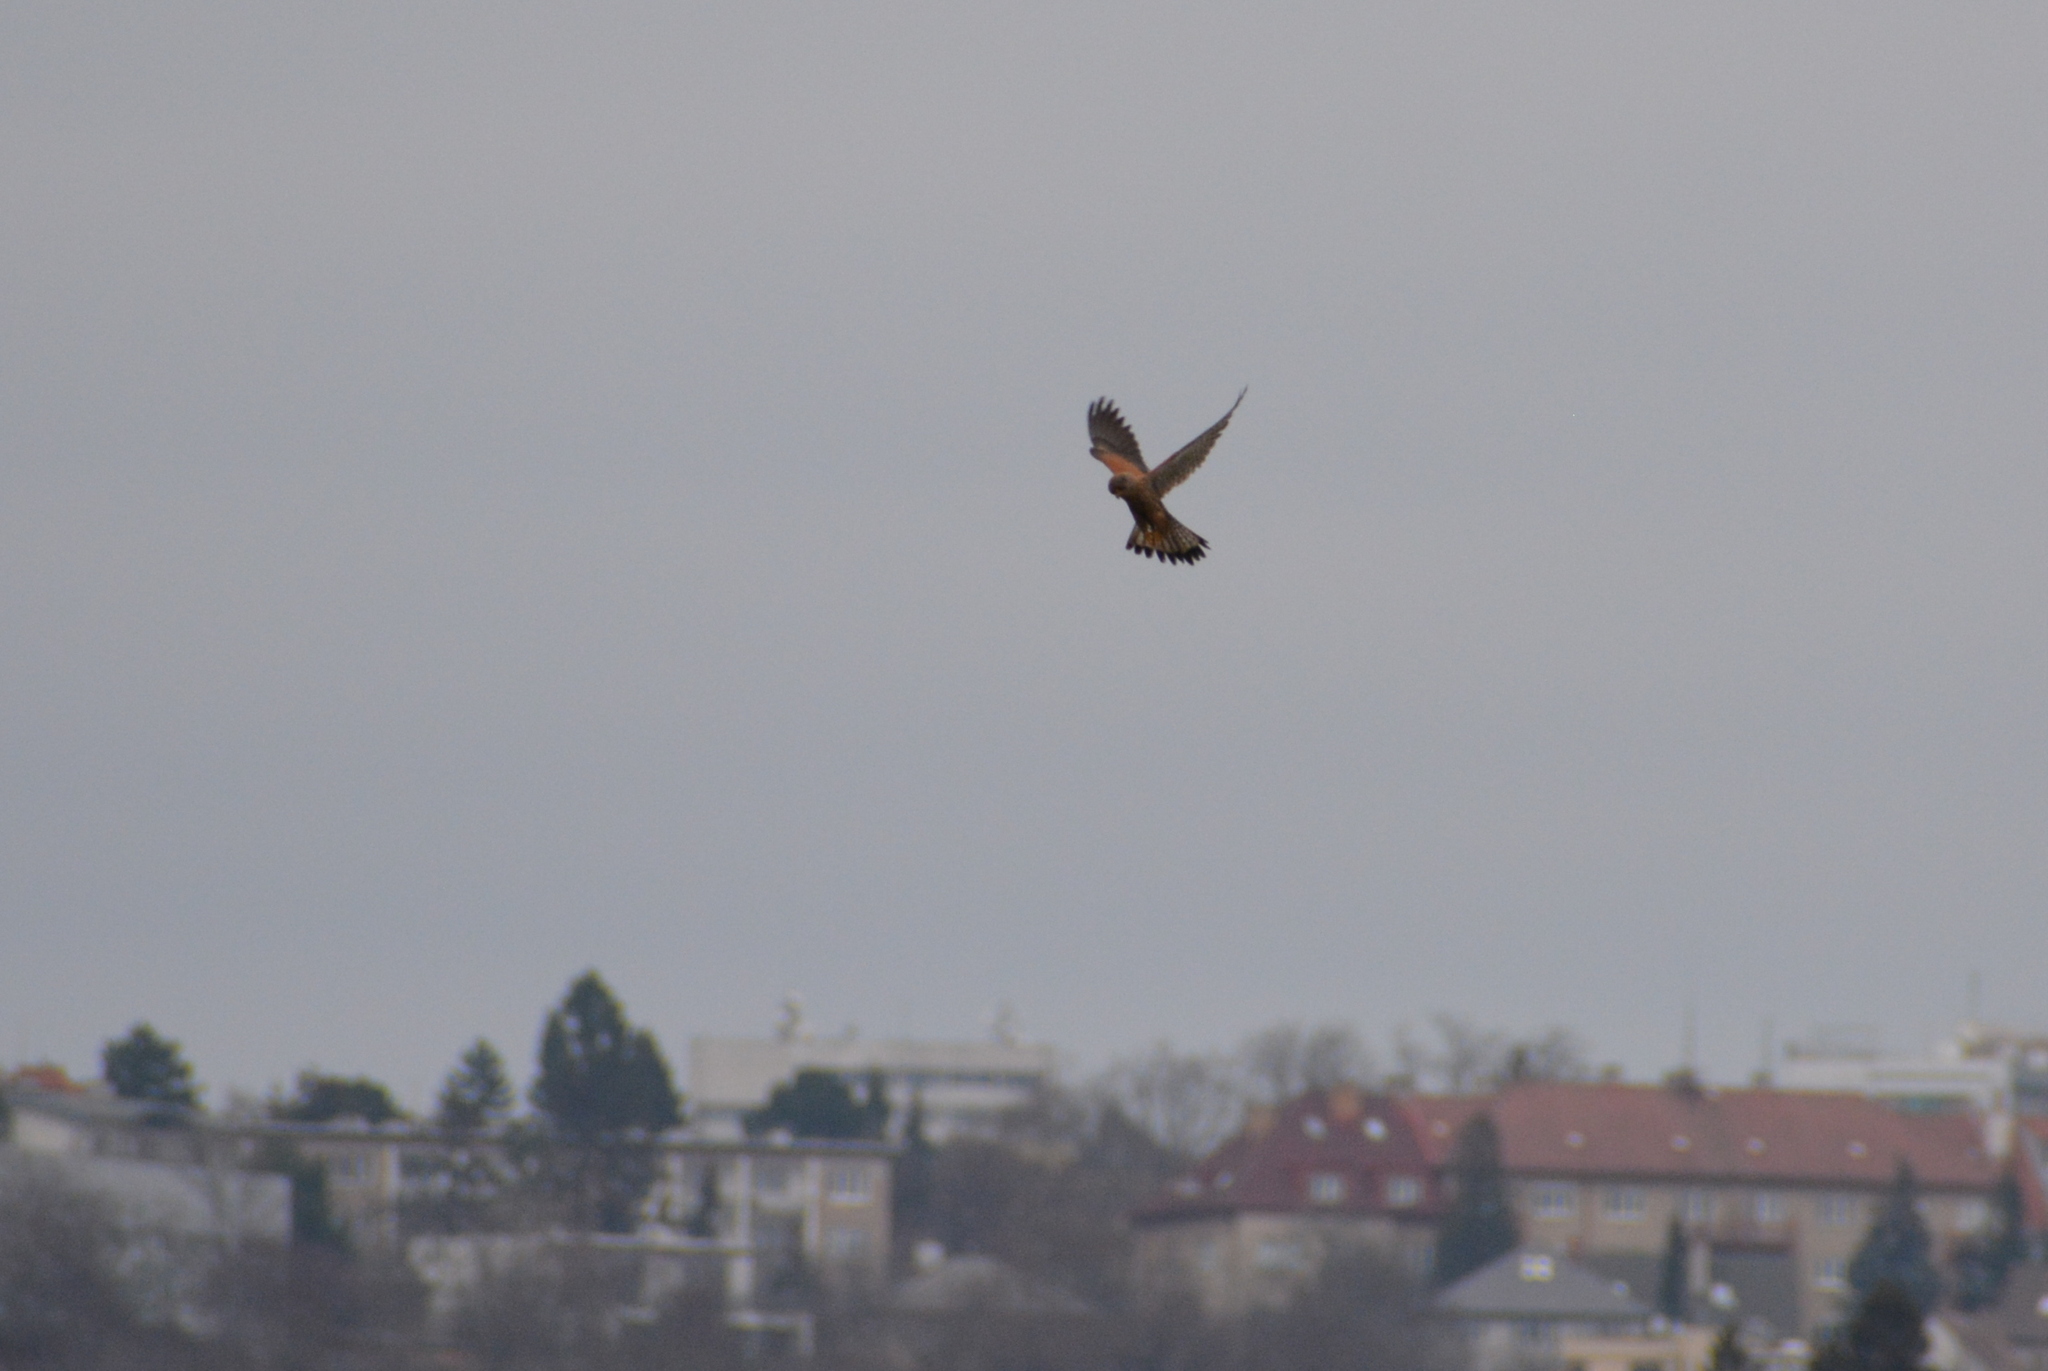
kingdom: Animalia
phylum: Chordata
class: Aves
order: Falconiformes
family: Falconidae
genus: Falco
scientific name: Falco tinnunculus
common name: Common kestrel
